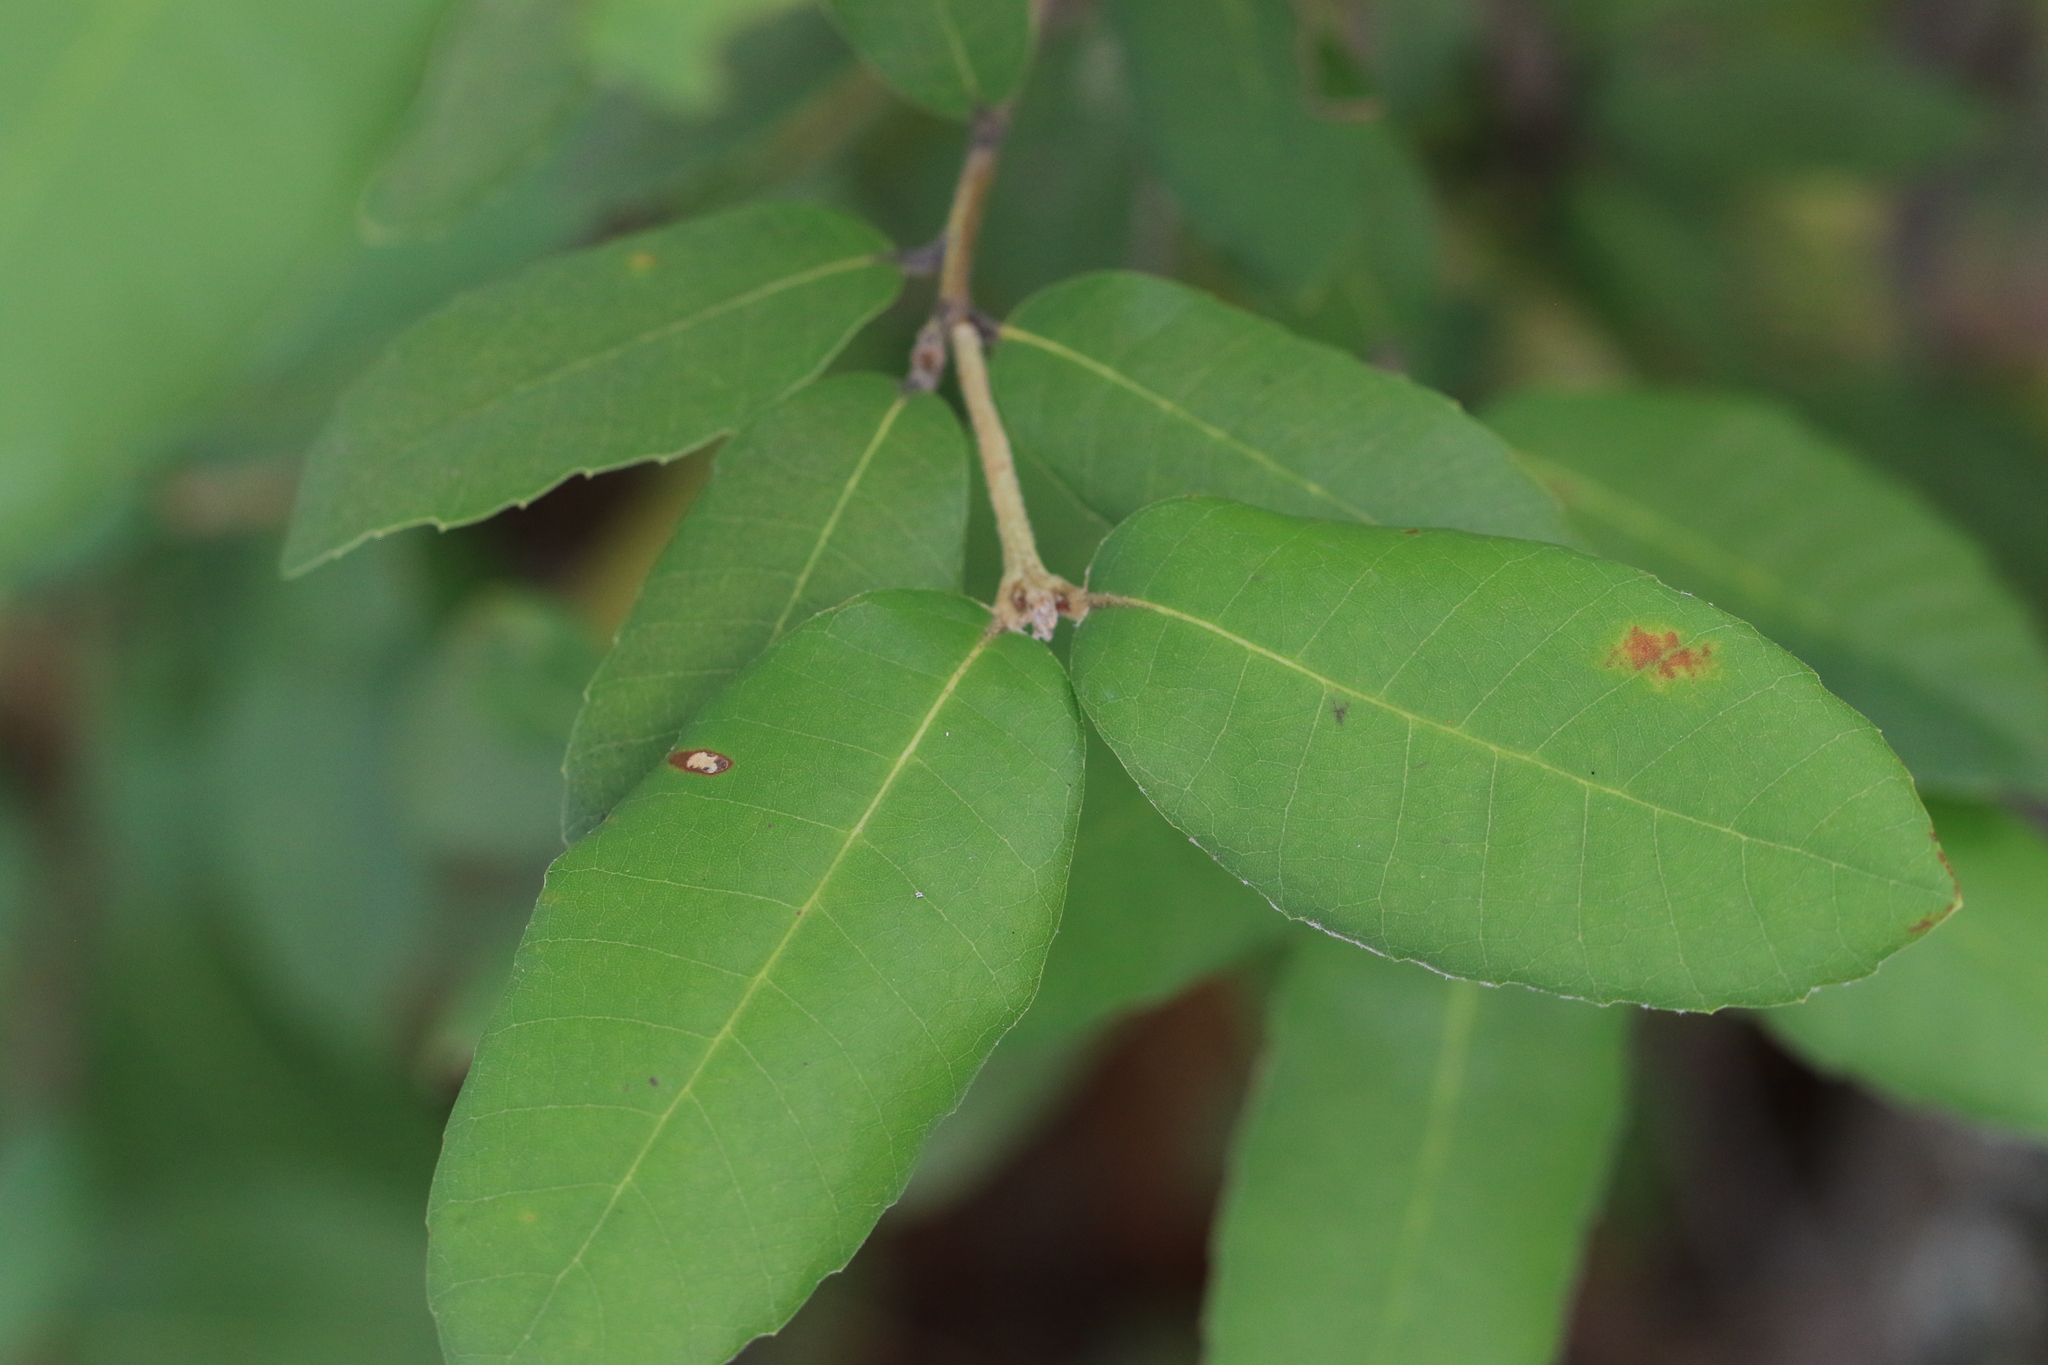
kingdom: Plantae
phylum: Tracheophyta
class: Magnoliopsida
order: Fagales
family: Fagaceae
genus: Notholithocarpus
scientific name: Notholithocarpus densiflorus
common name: Tan bark oak
